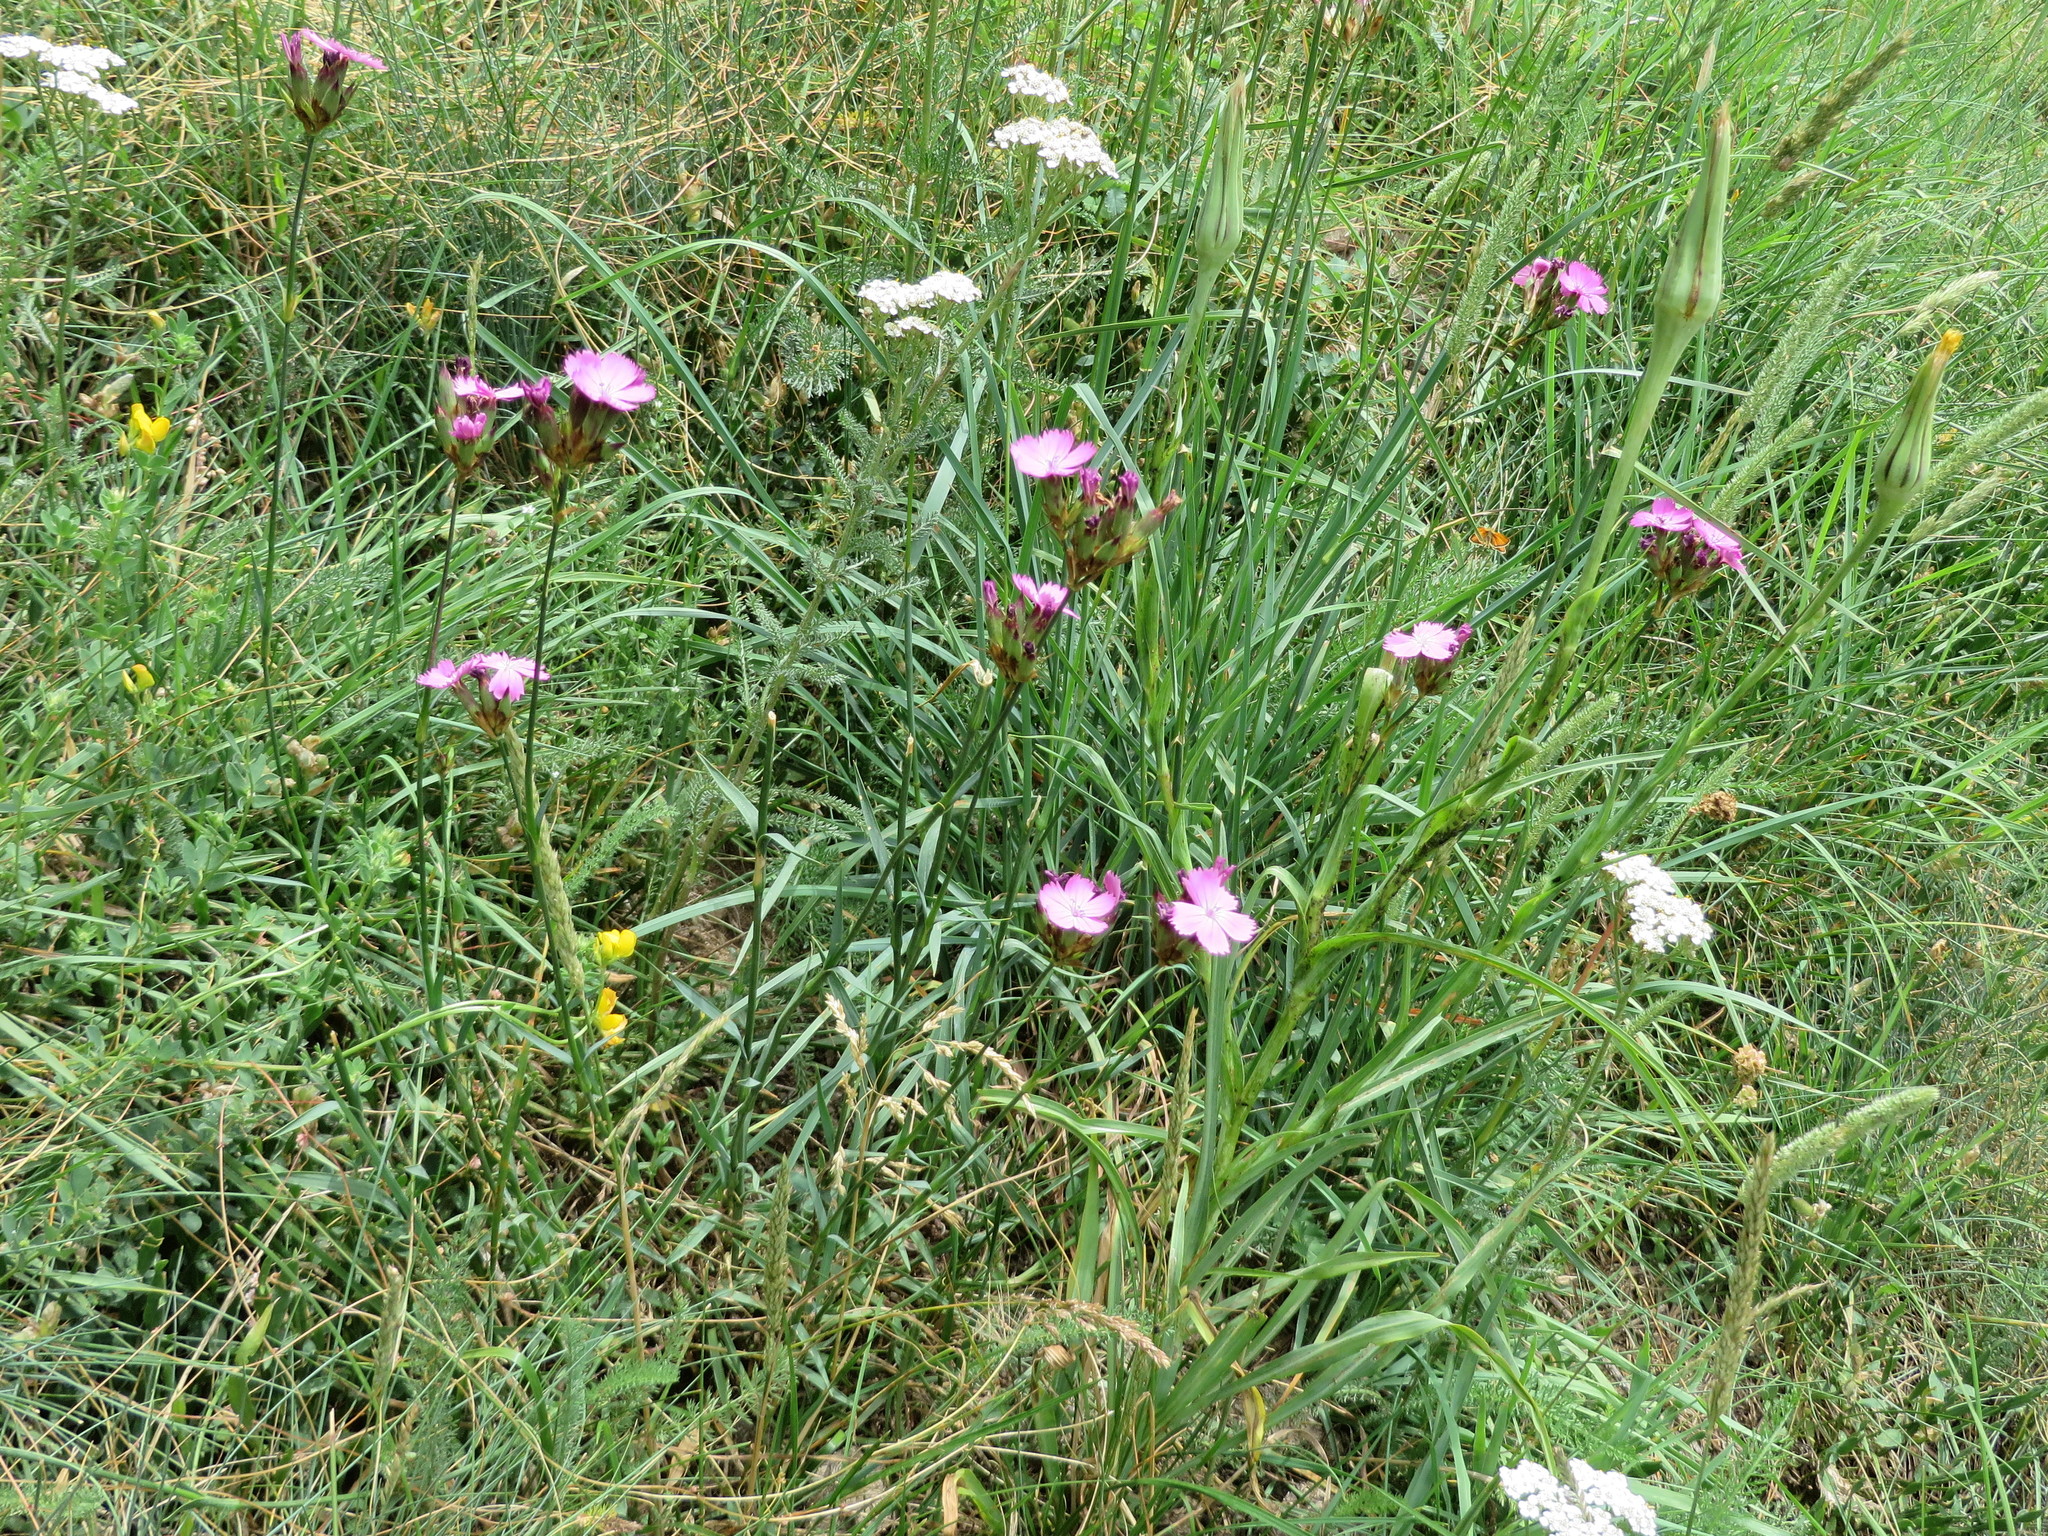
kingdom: Plantae
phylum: Tracheophyta
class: Magnoliopsida
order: Caryophyllales
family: Caryophyllaceae
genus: Dianthus
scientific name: Dianthus carthusianorum
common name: Carthusian pink
